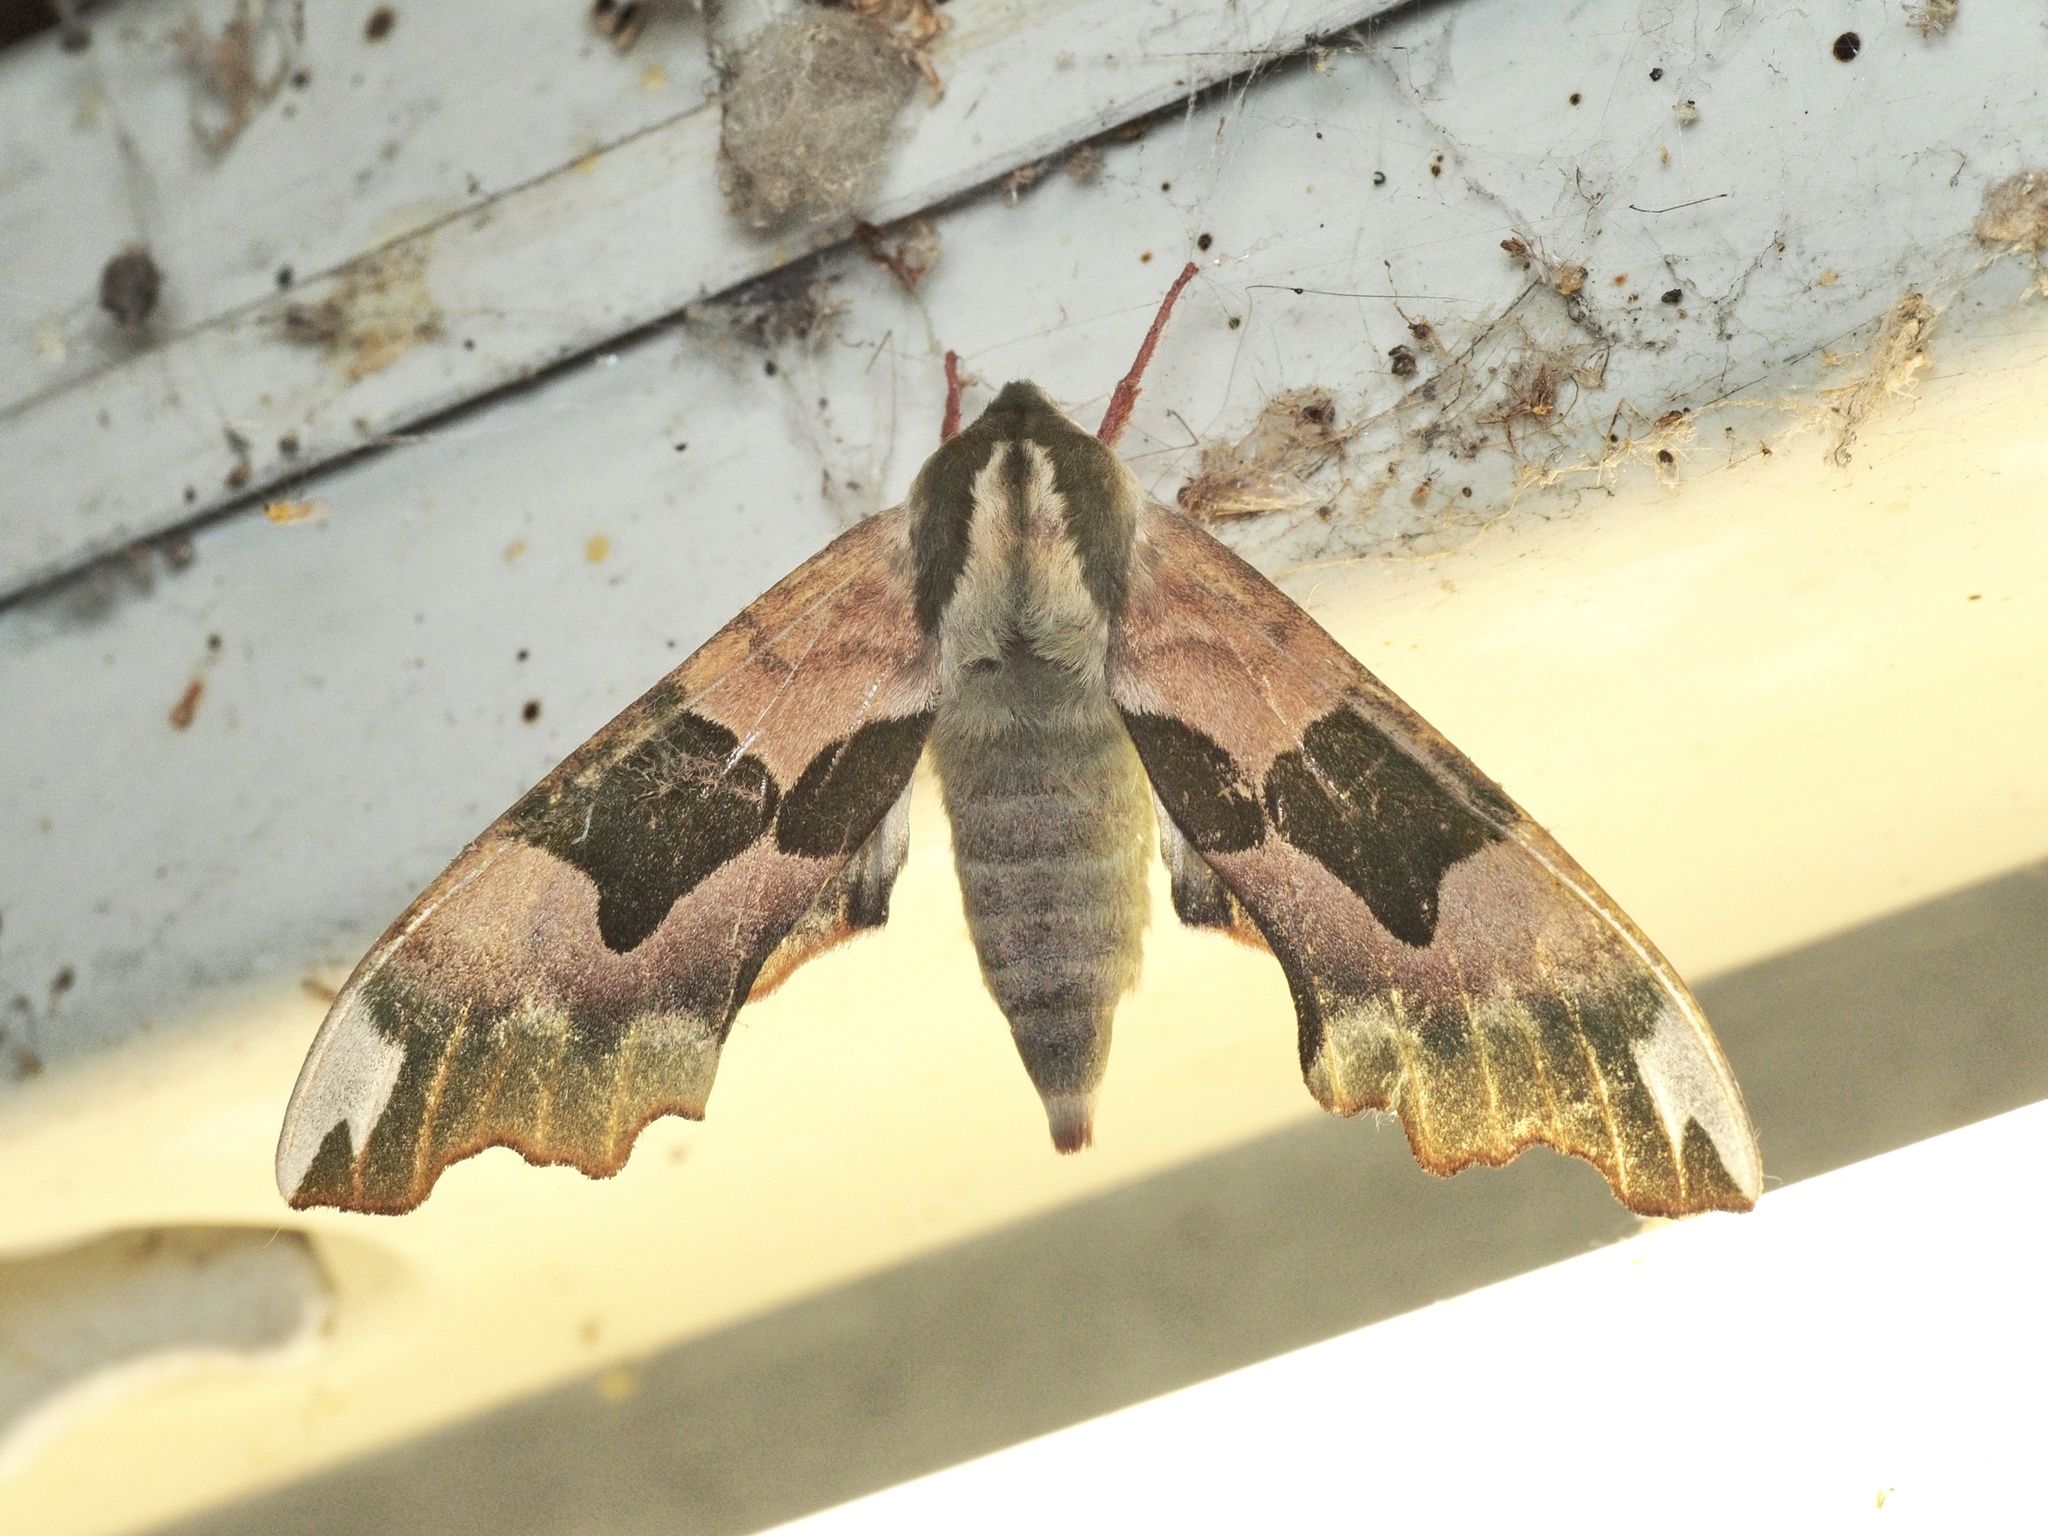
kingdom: Animalia
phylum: Arthropoda
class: Insecta
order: Lepidoptera
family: Sphingidae
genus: Mimas
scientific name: Mimas tiliae
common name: Lime hawk-moth
